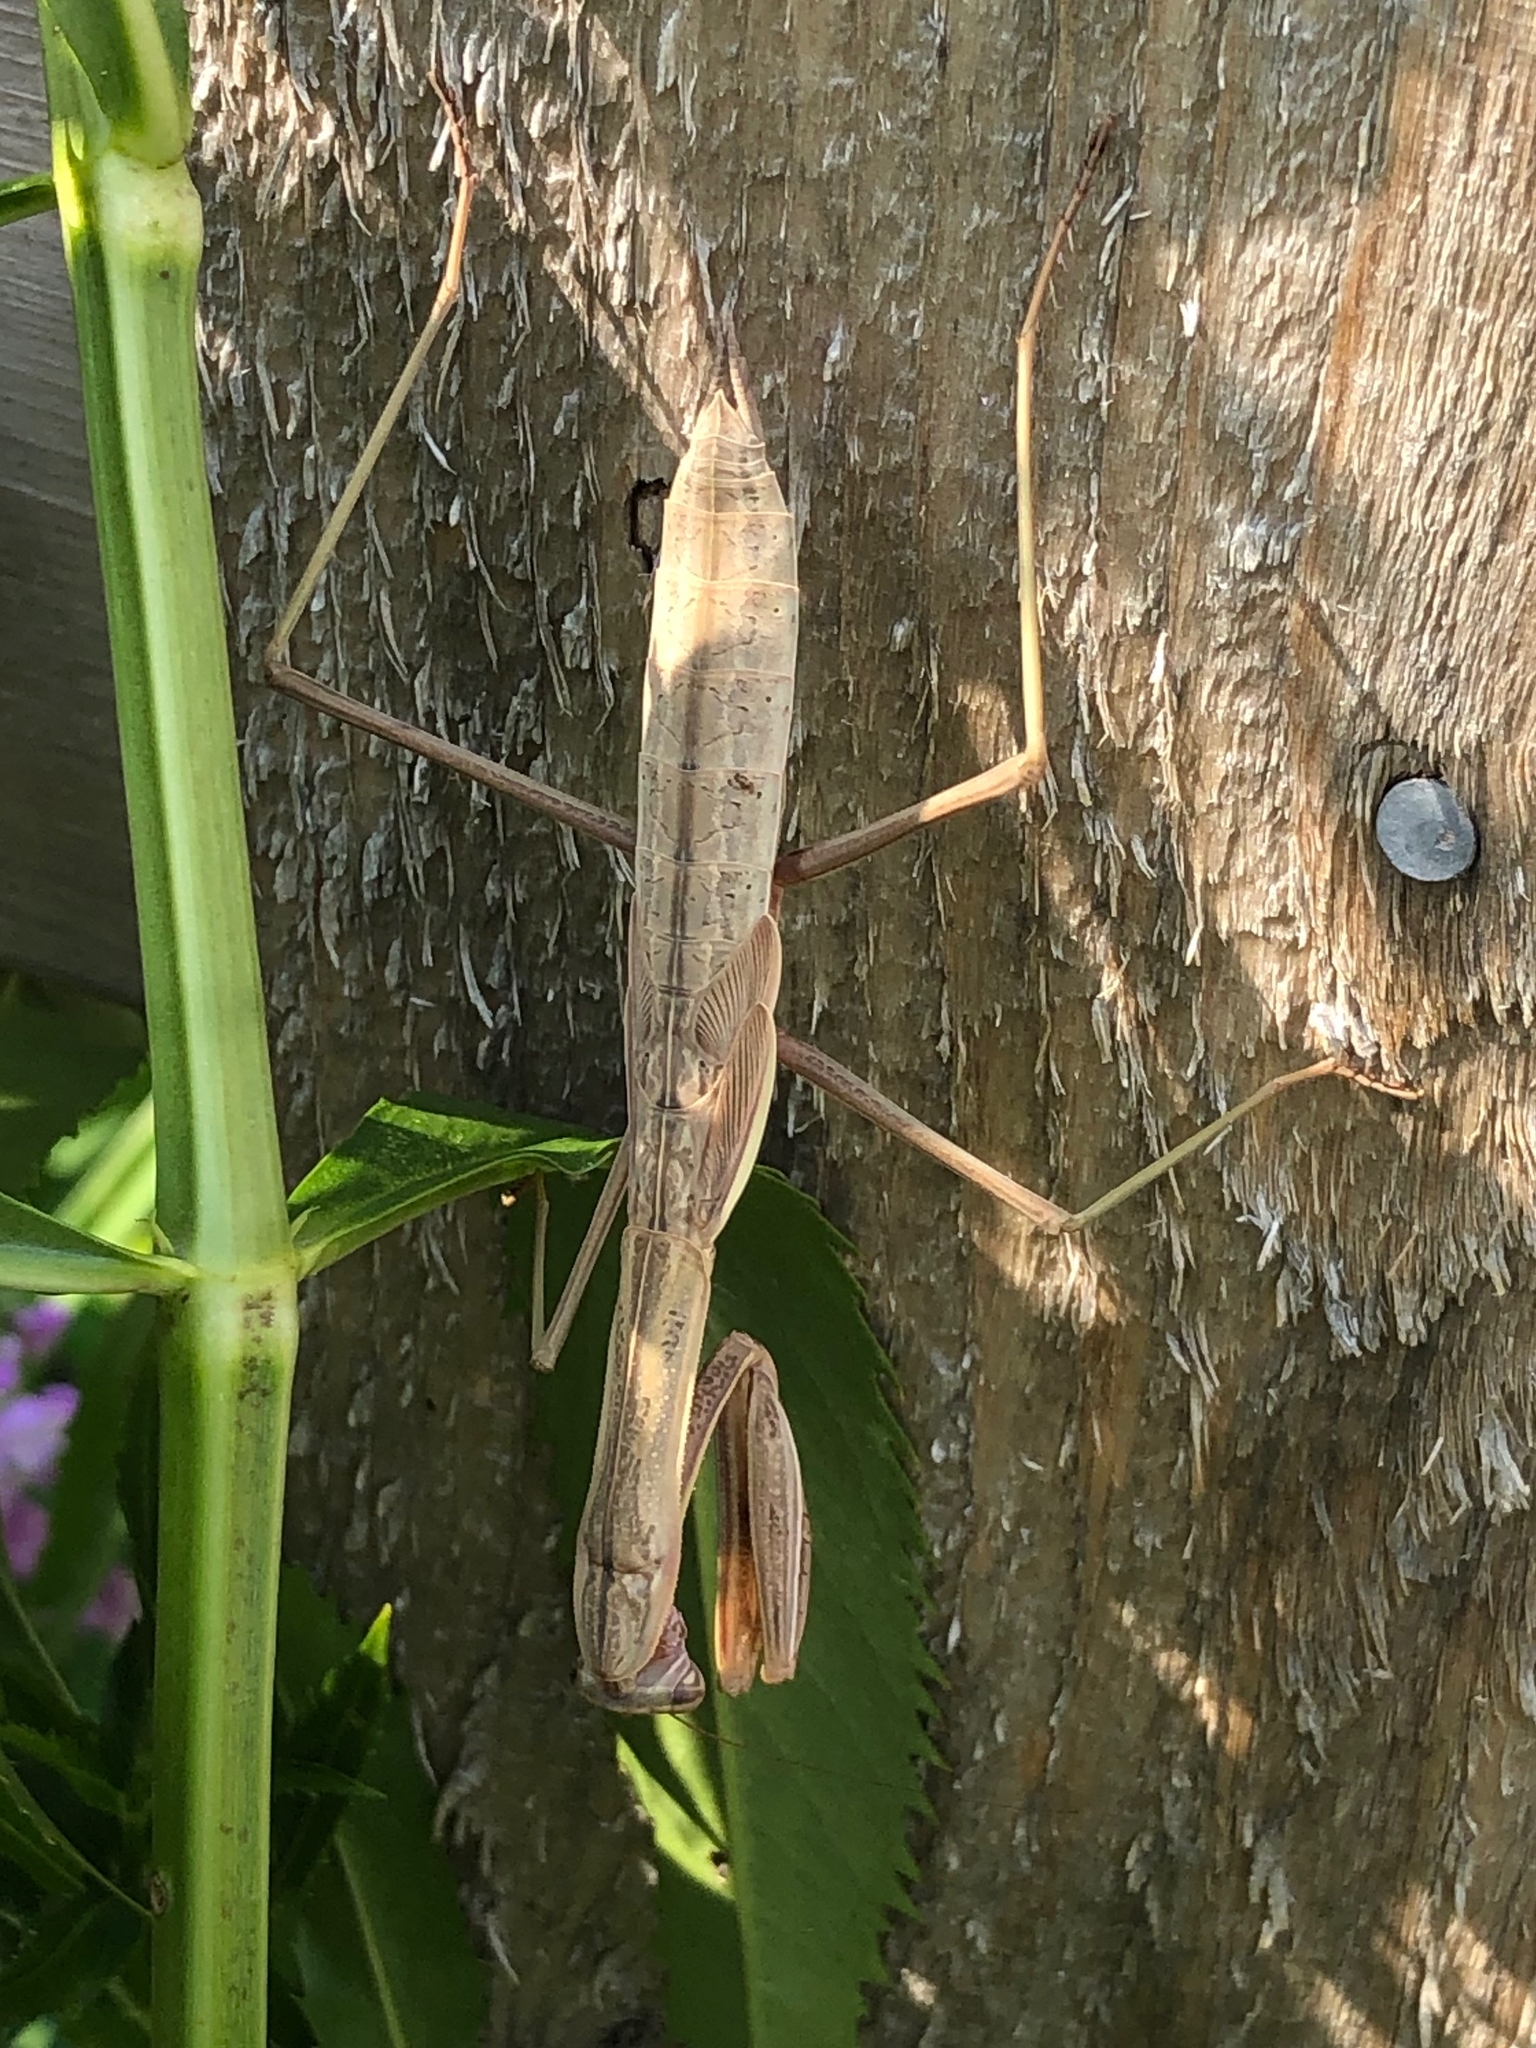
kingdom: Animalia
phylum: Arthropoda
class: Insecta
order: Mantodea
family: Mantidae
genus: Tenodera
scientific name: Tenodera sinensis
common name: Chinese mantis
